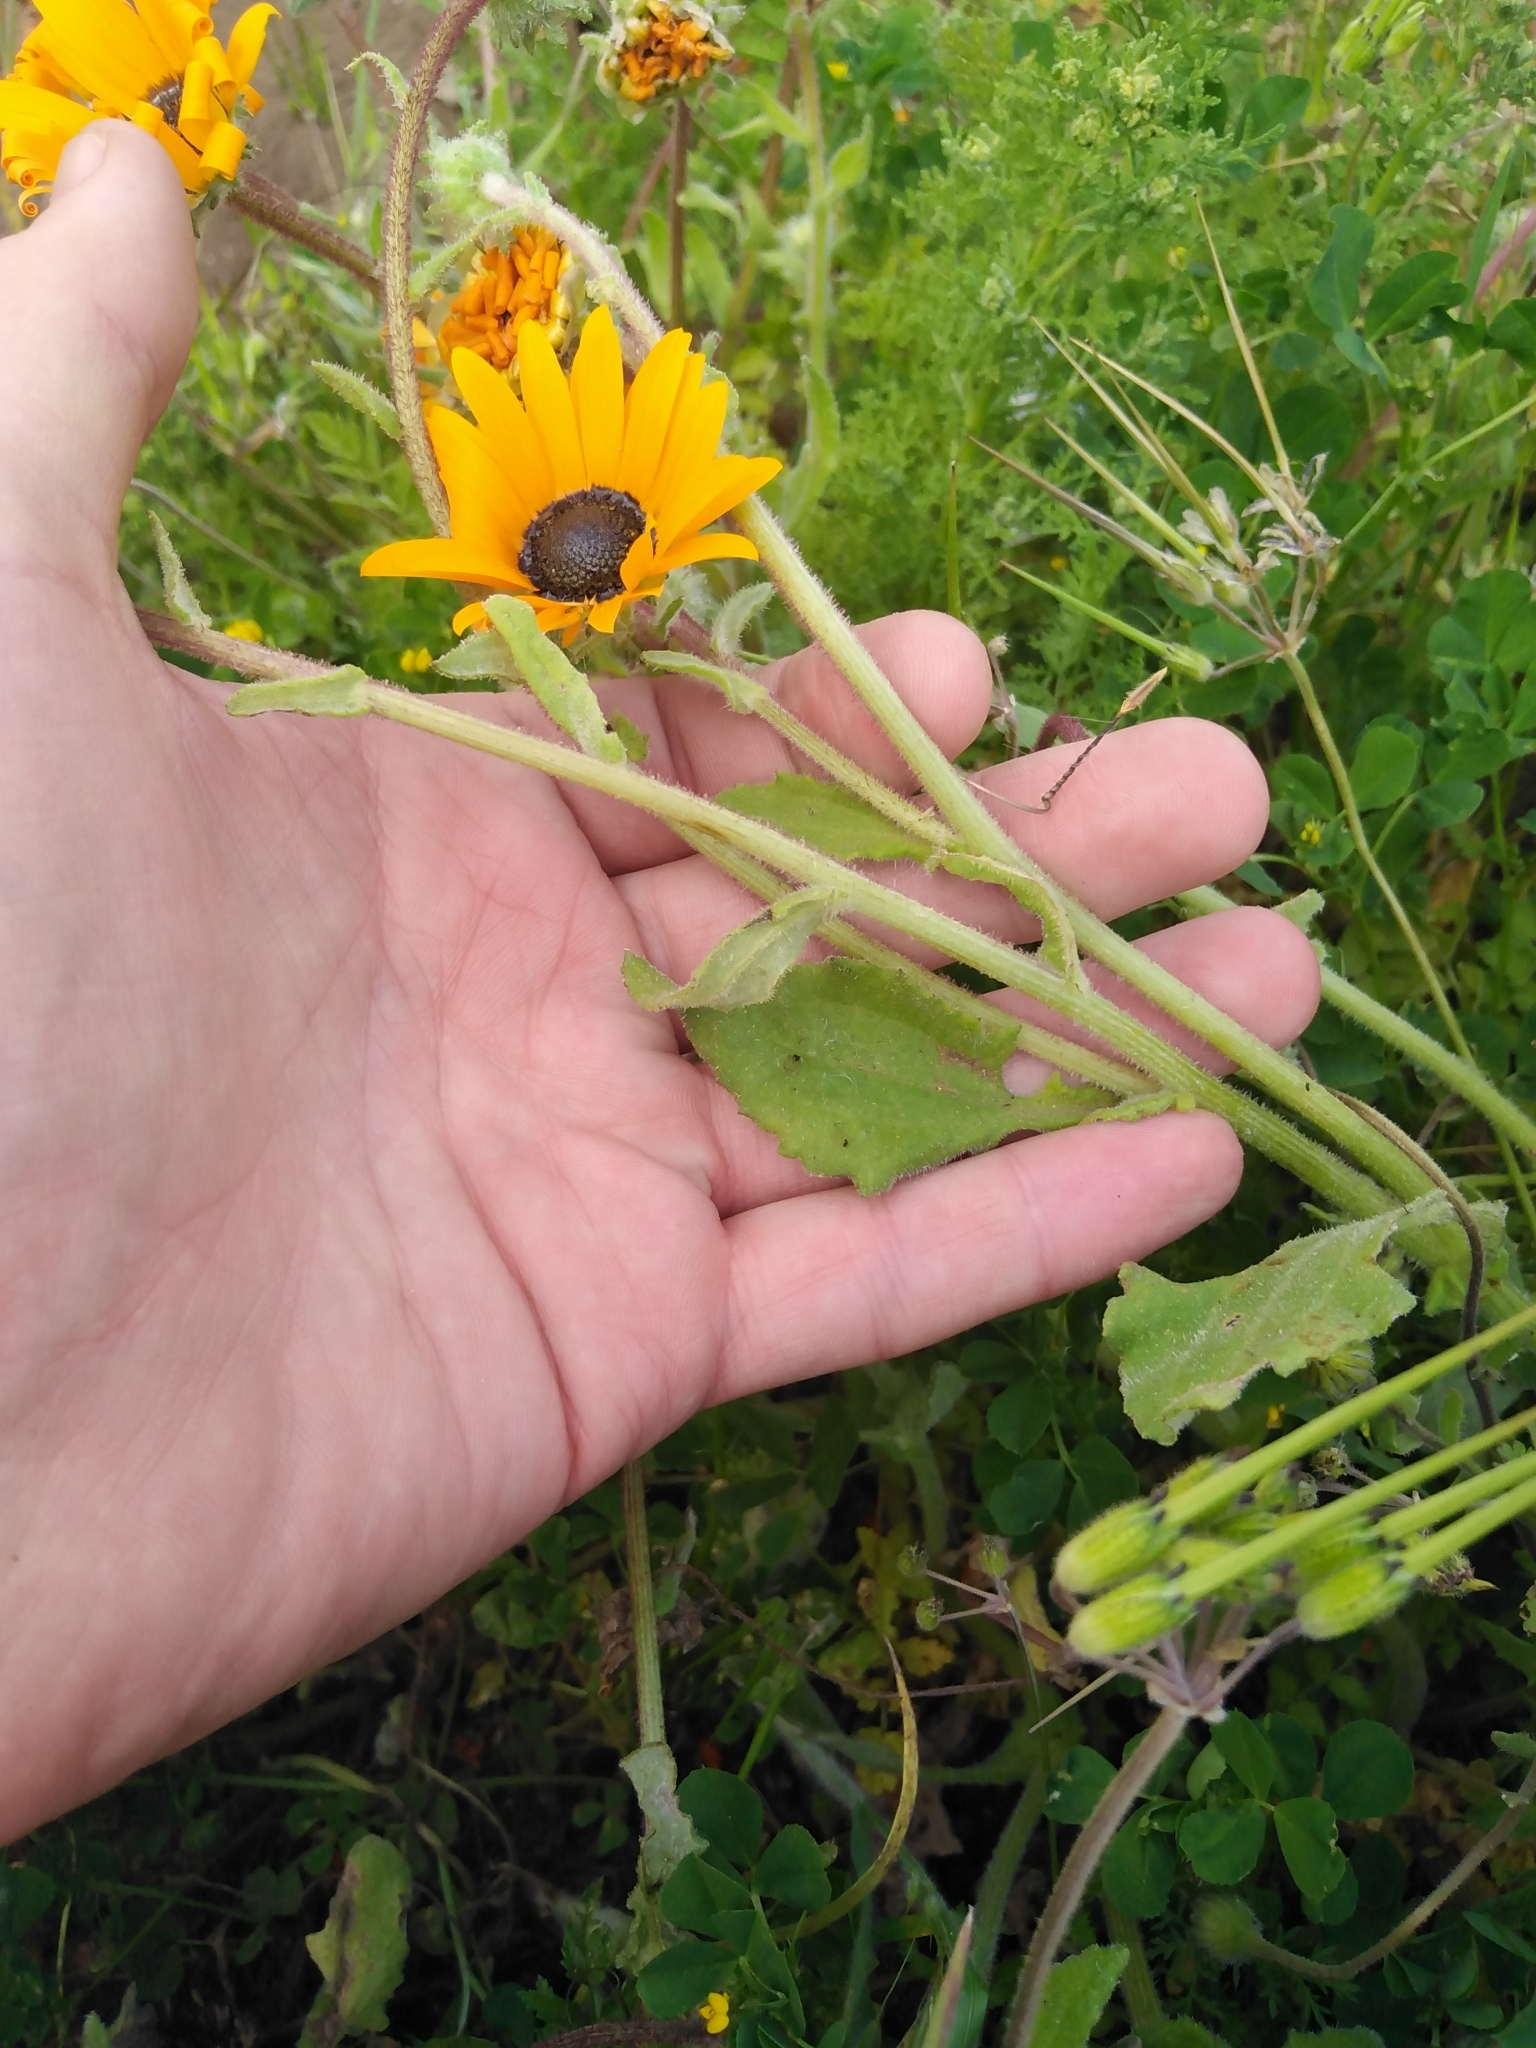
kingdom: Plantae
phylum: Tracheophyta
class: Magnoliopsida
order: Asterales
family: Asteraceae
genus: Arctotis
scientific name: Arctotis hirsuta
